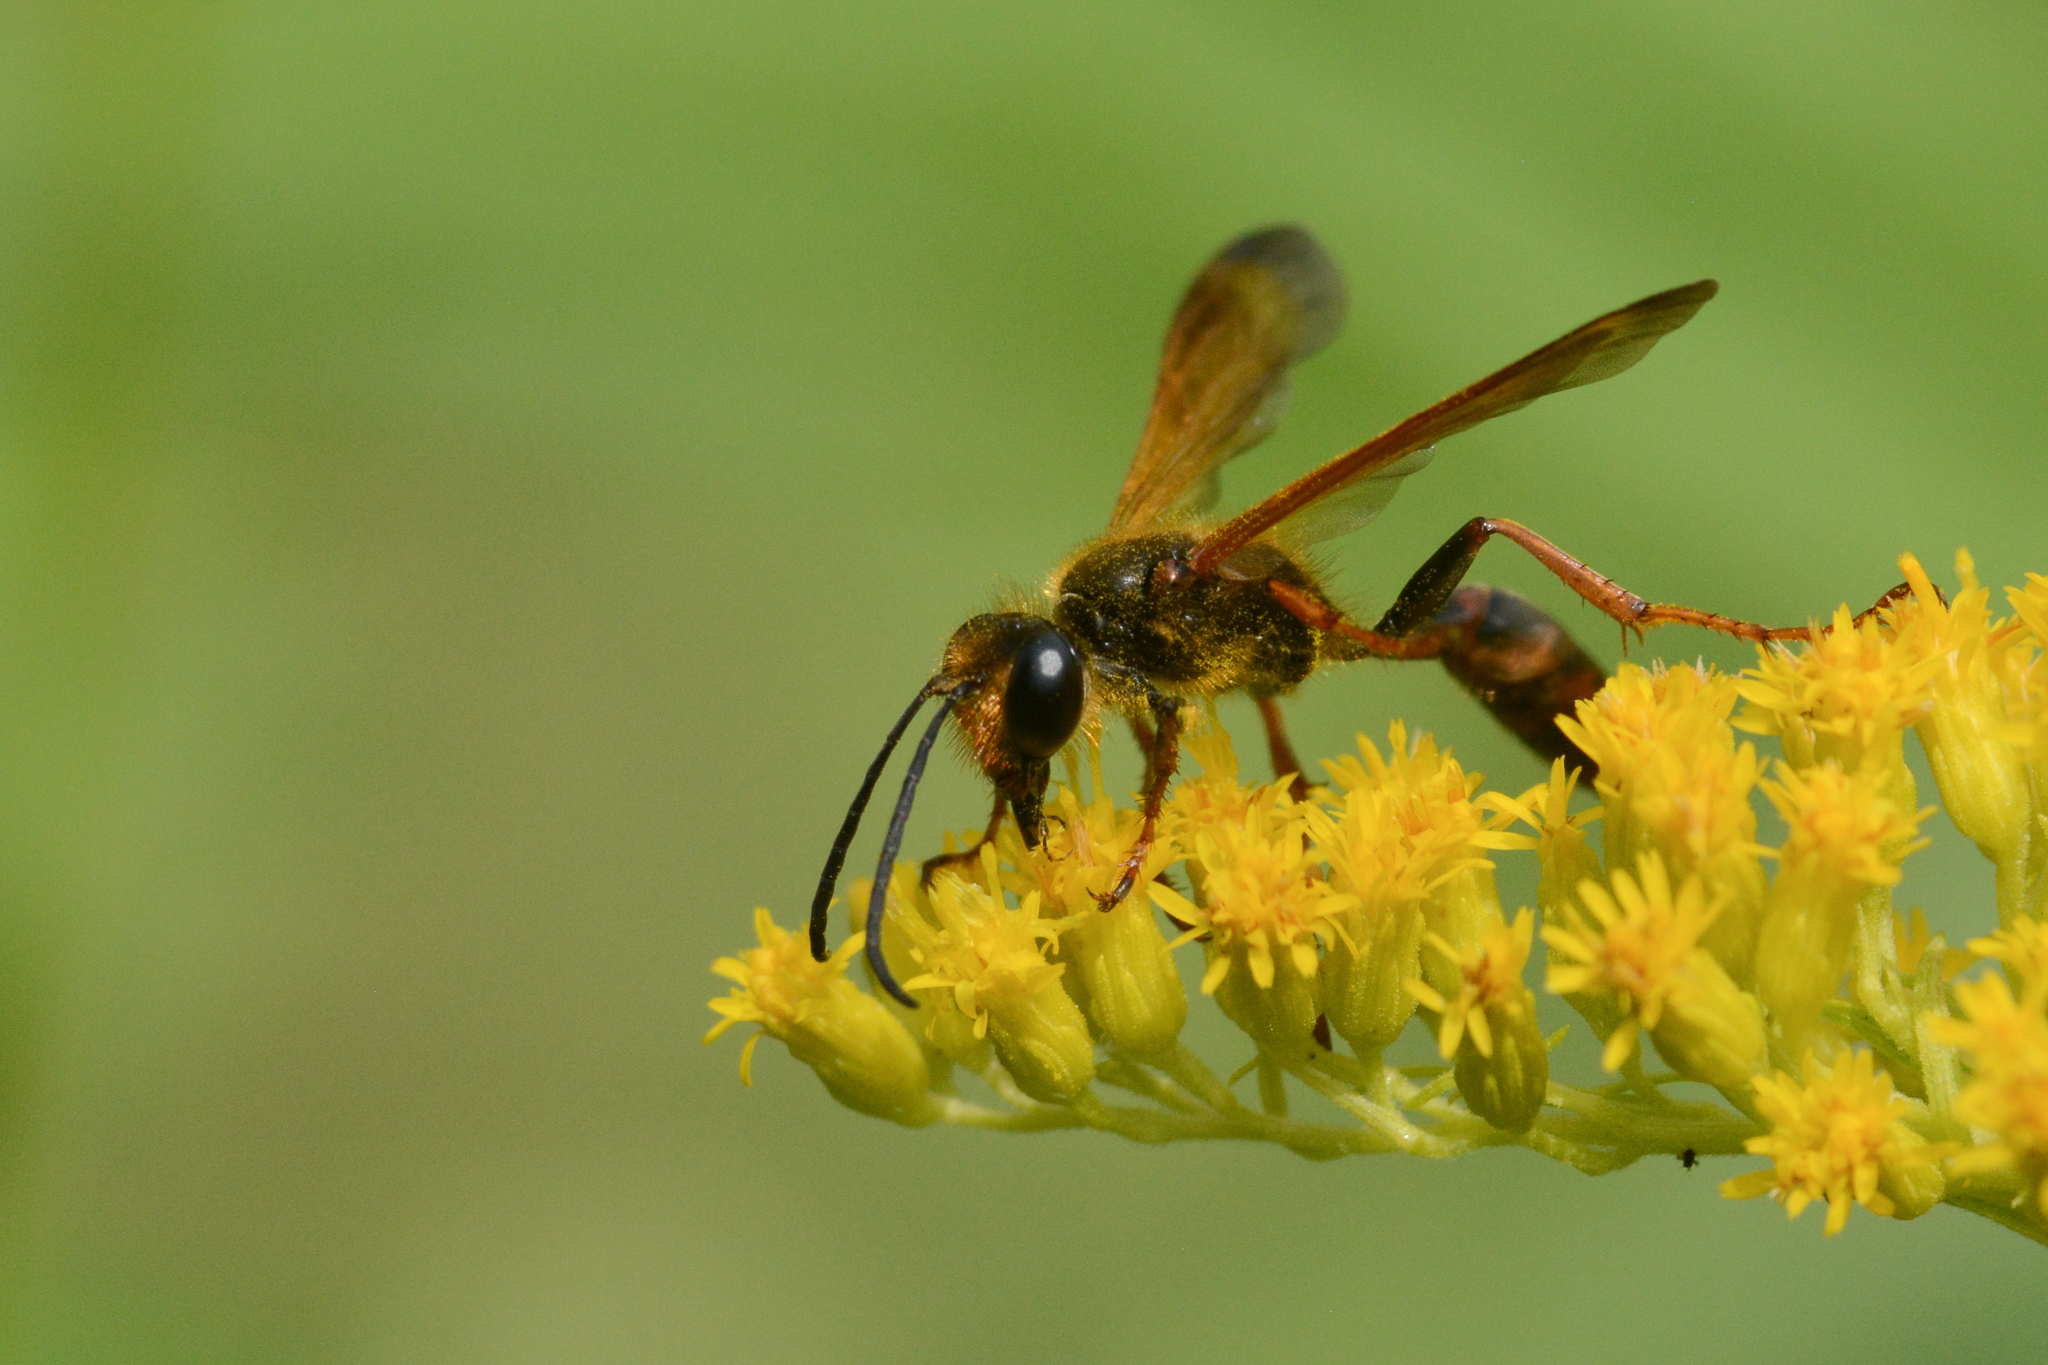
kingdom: Animalia
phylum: Arthropoda
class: Insecta
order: Hymenoptera
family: Sphecidae
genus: Isodontia
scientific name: Isodontia elegans
